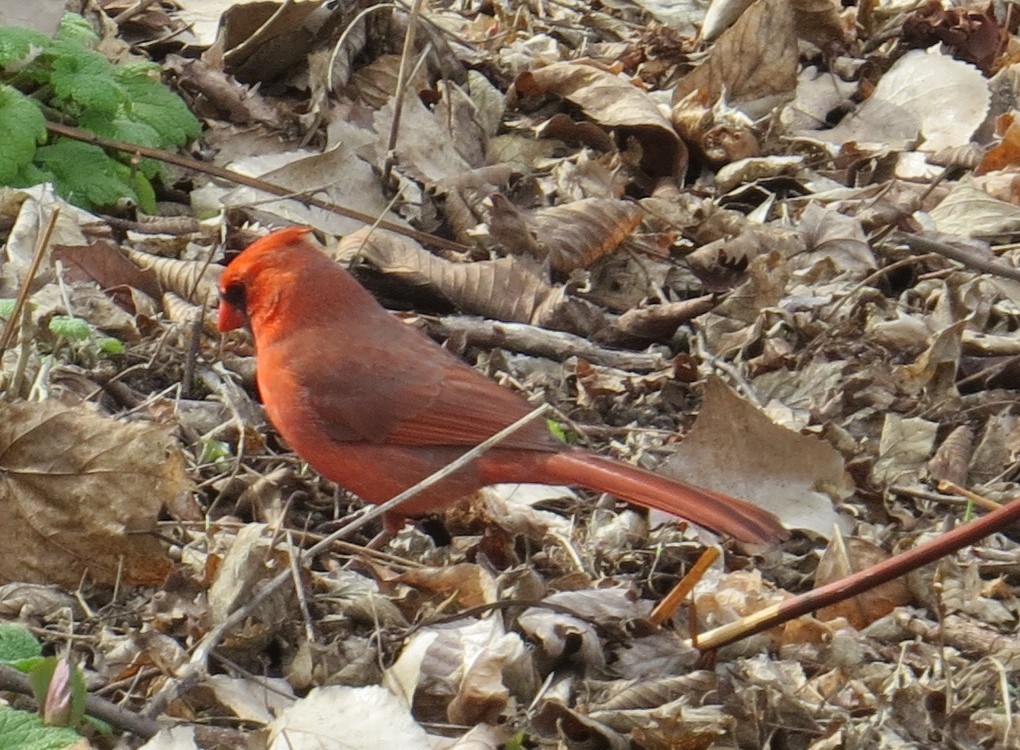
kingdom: Animalia
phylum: Chordata
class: Aves
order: Passeriformes
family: Cardinalidae
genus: Cardinalis
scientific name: Cardinalis cardinalis
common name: Northern cardinal
